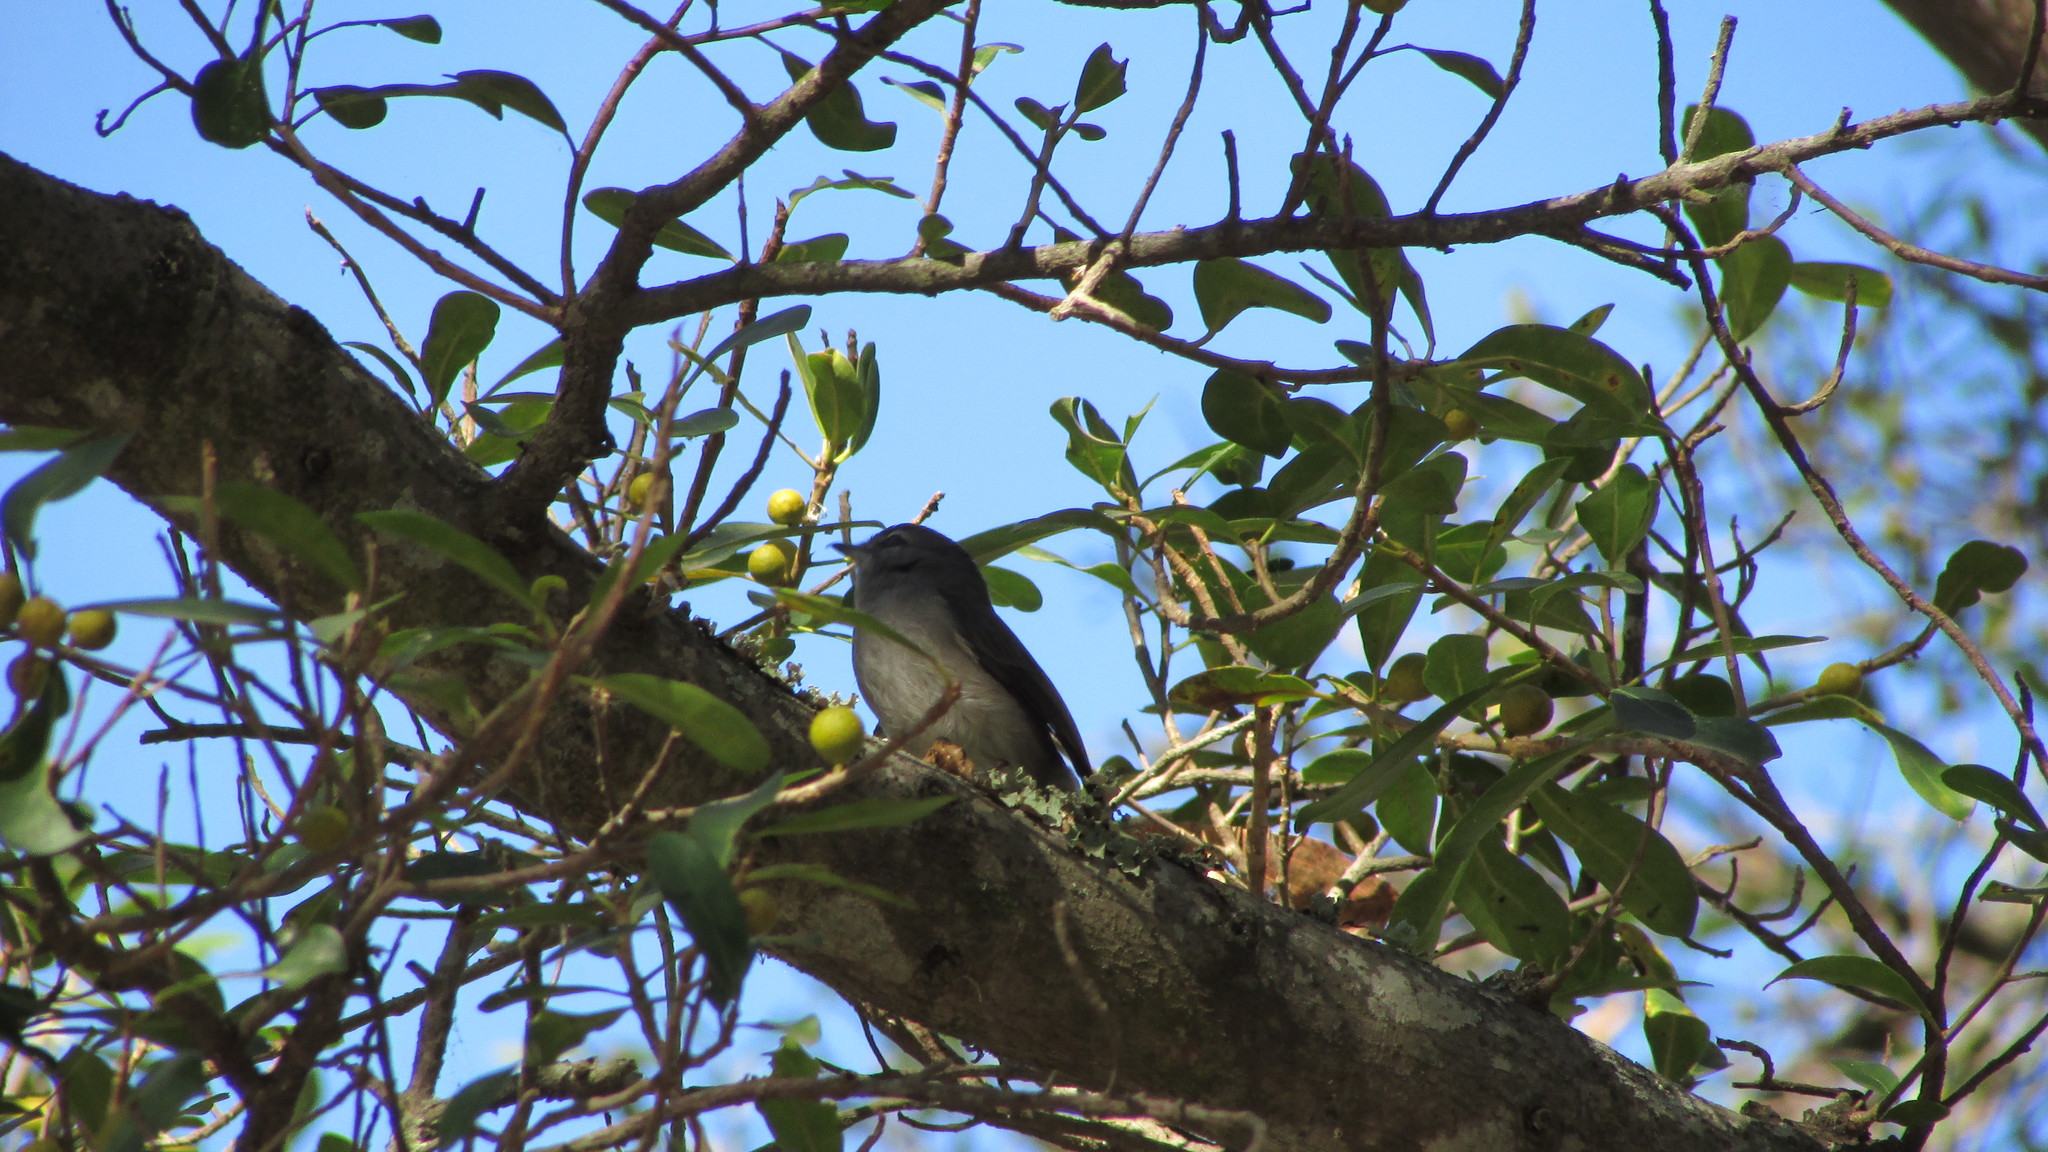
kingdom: Animalia
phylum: Chordata
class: Aves
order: Passeriformes
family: Muscicapidae
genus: Muscicapa
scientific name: Muscicapa caerulescens
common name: Ashy flycatcher
